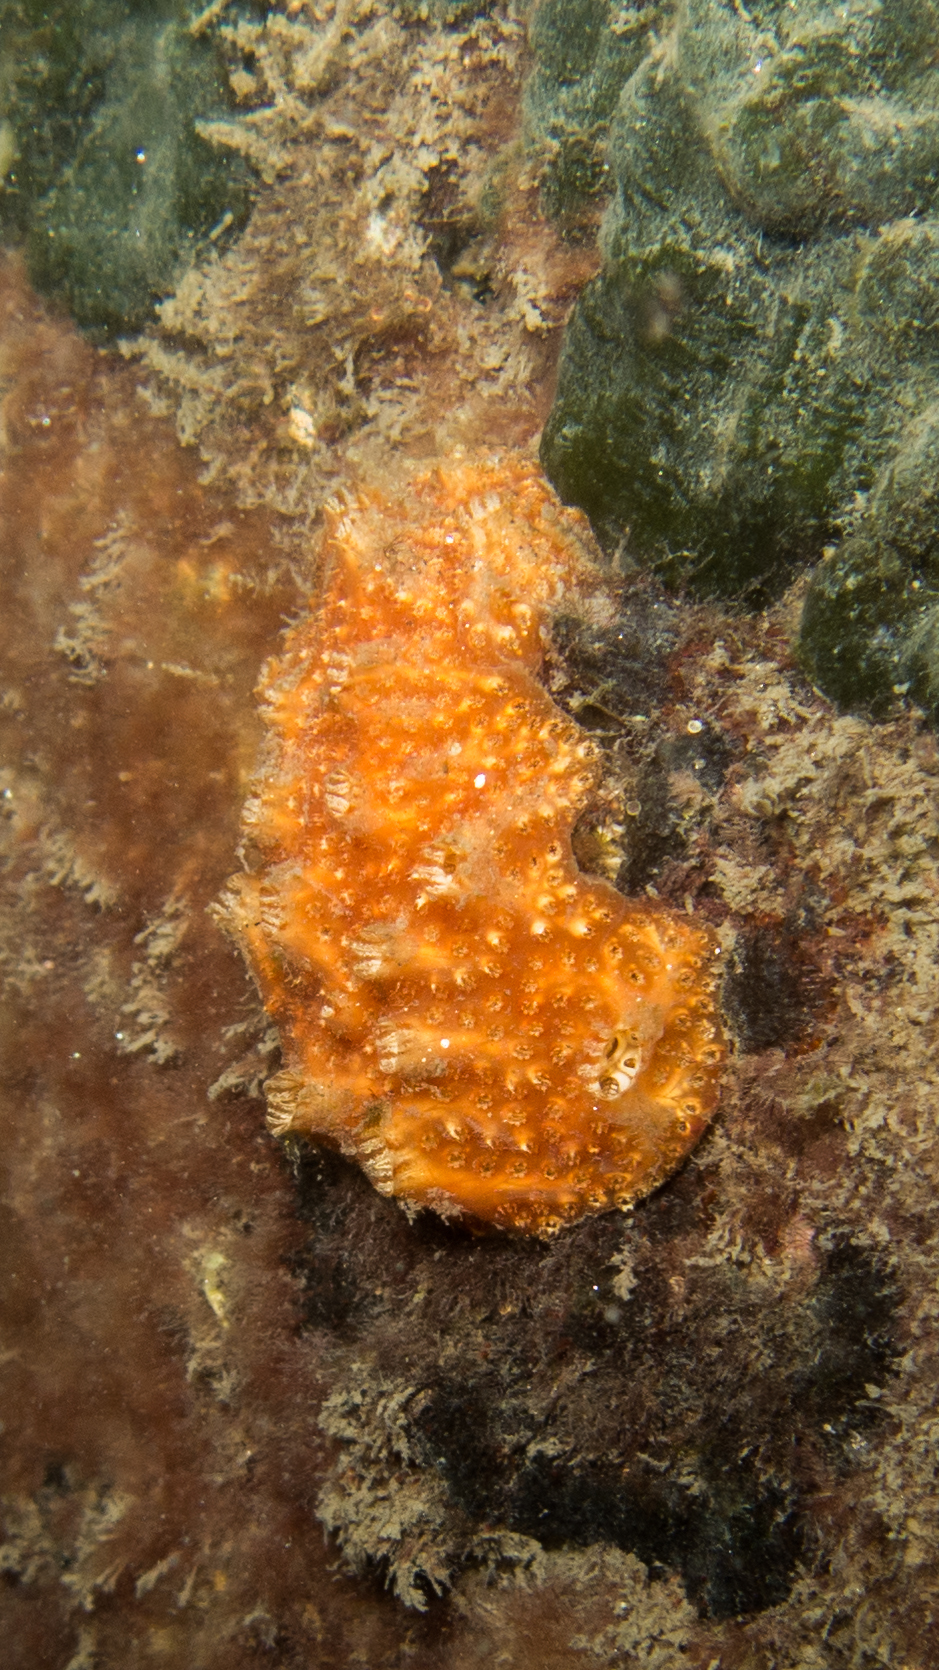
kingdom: Animalia
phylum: Chordata
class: Ascidiacea
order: Aplousobranchia
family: Polyclinidae
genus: Polyclinum
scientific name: Polyclinum constellatum
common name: Ascidian
